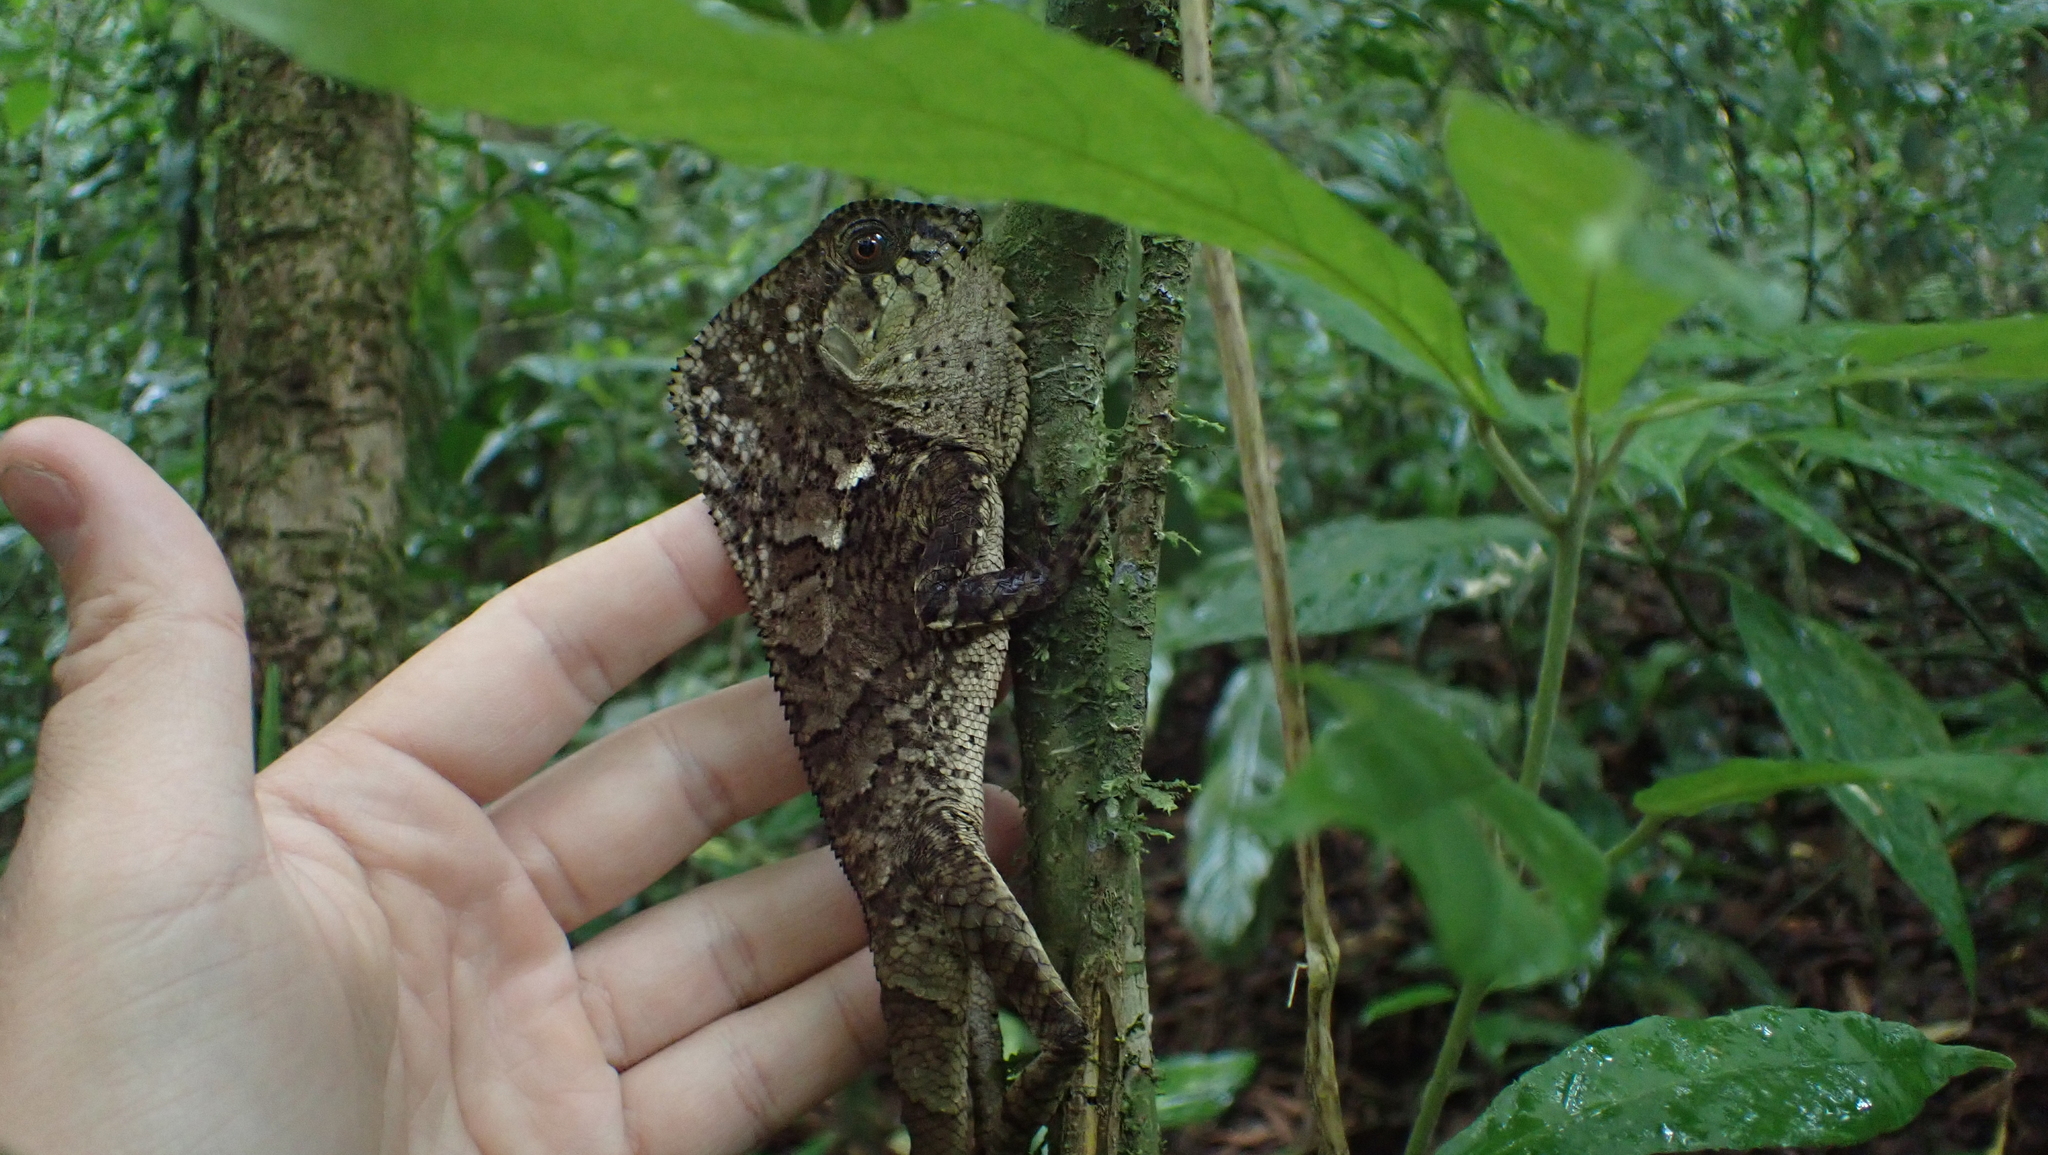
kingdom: Animalia
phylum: Chordata
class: Squamata
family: Corytophanidae
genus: Corytophanes
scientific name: Corytophanes cristatus
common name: Smooth helmeted iguana
